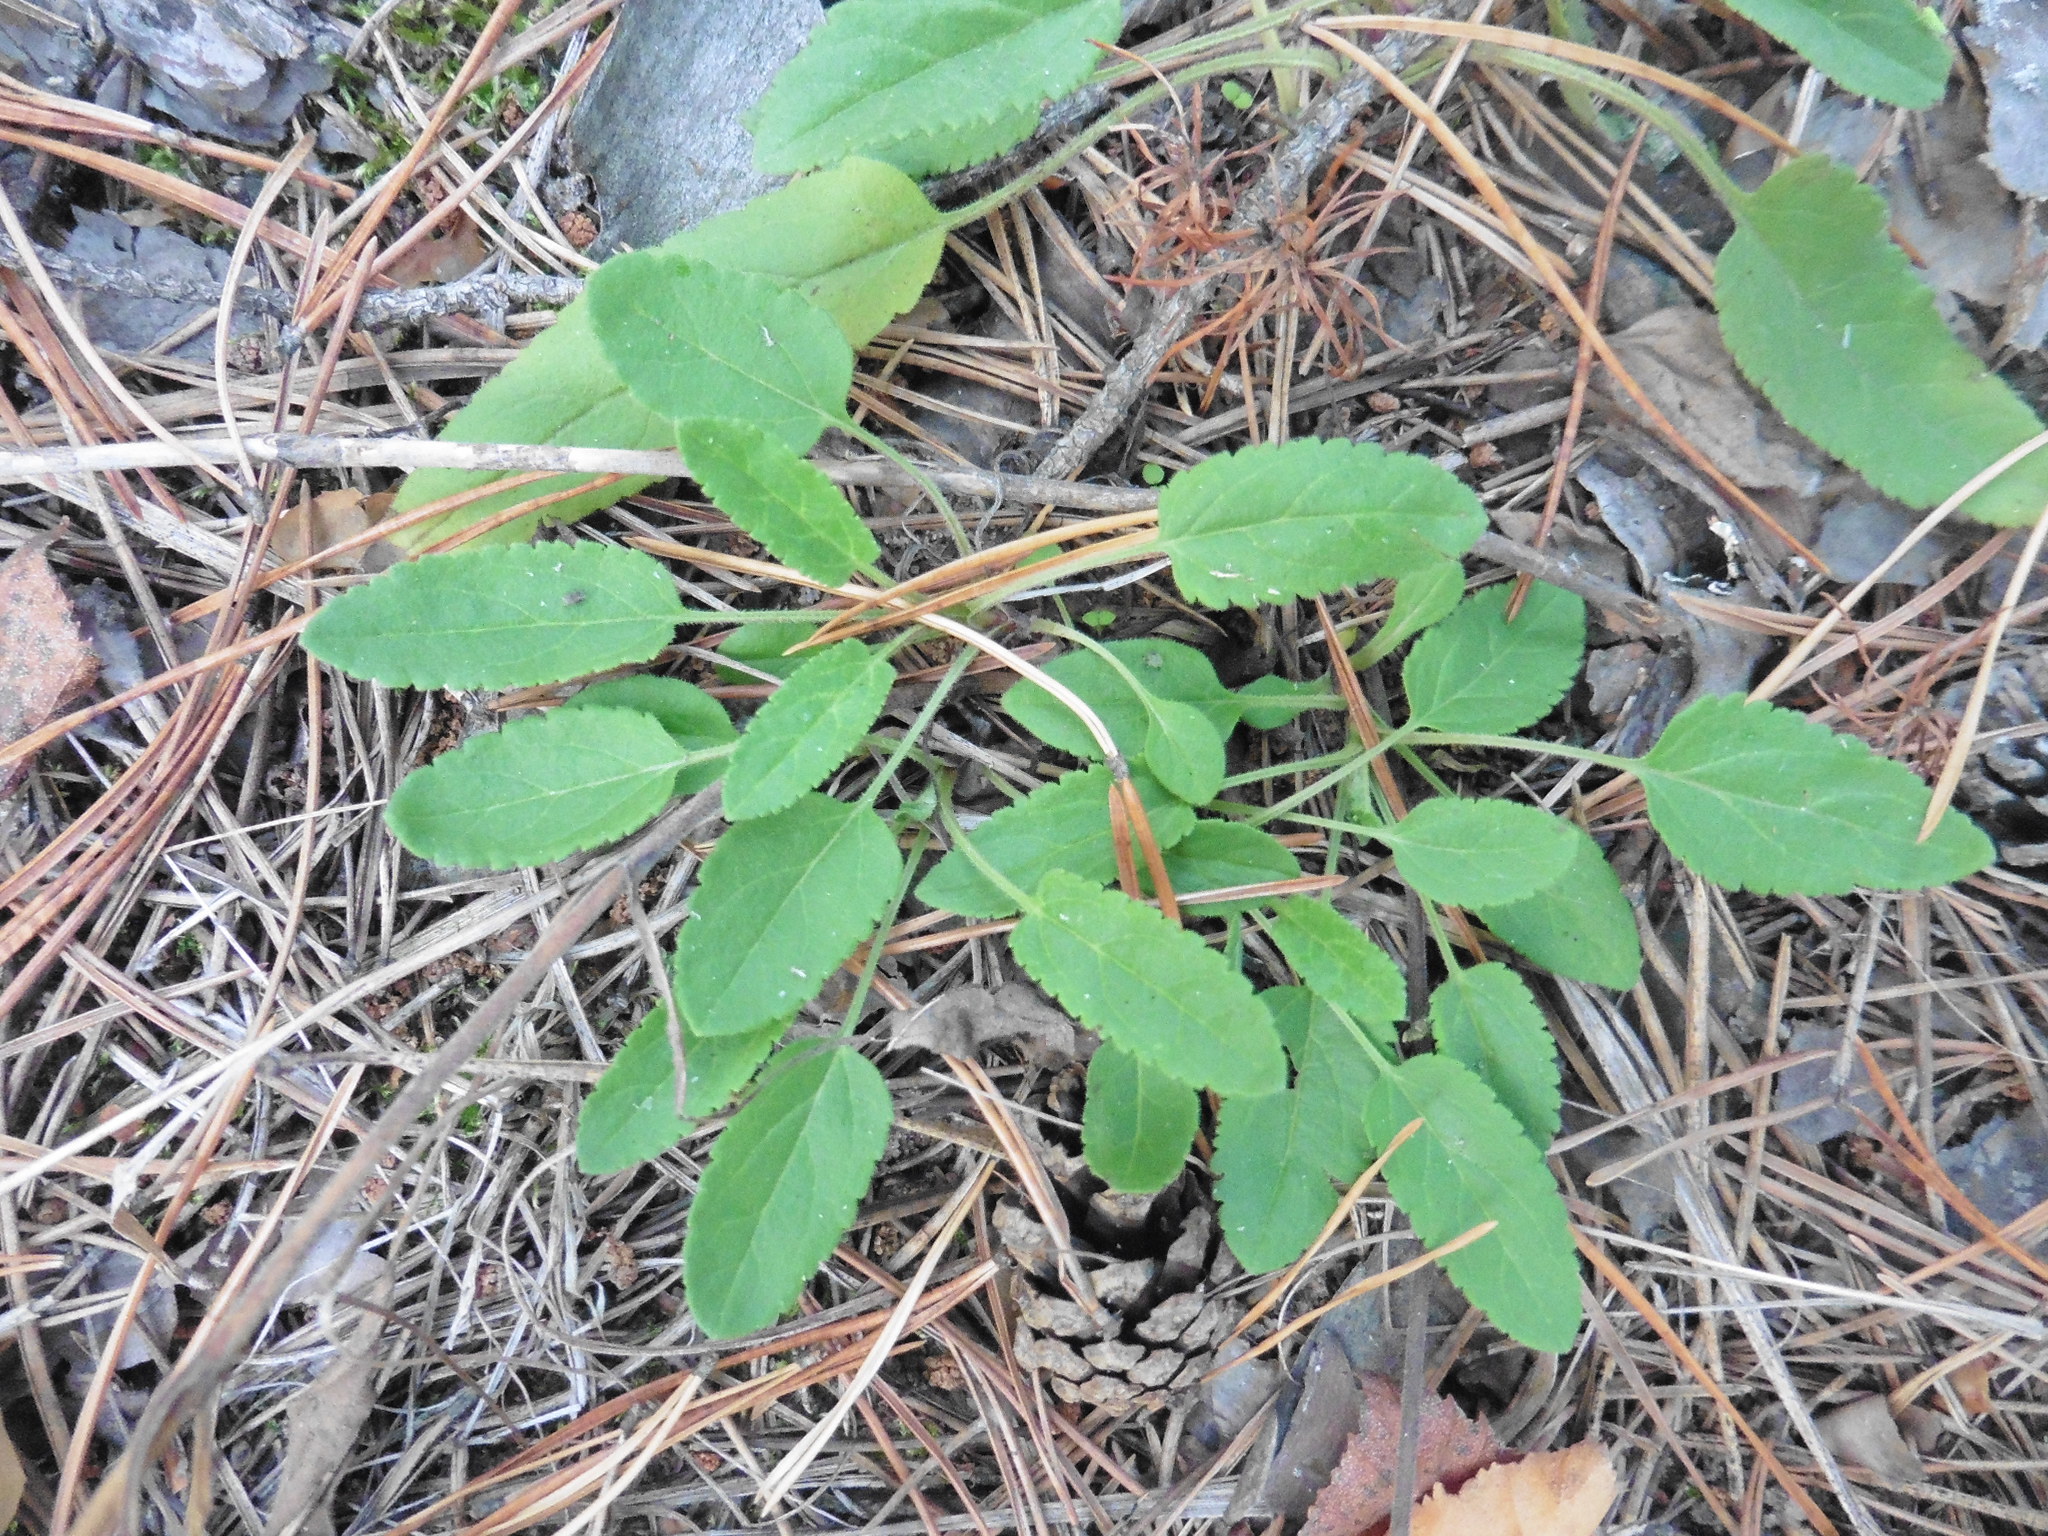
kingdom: Plantae
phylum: Tracheophyta
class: Magnoliopsida
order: Lamiales
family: Plantaginaceae
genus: Veronica
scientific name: Veronica spicata
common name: Spiked speedwell
